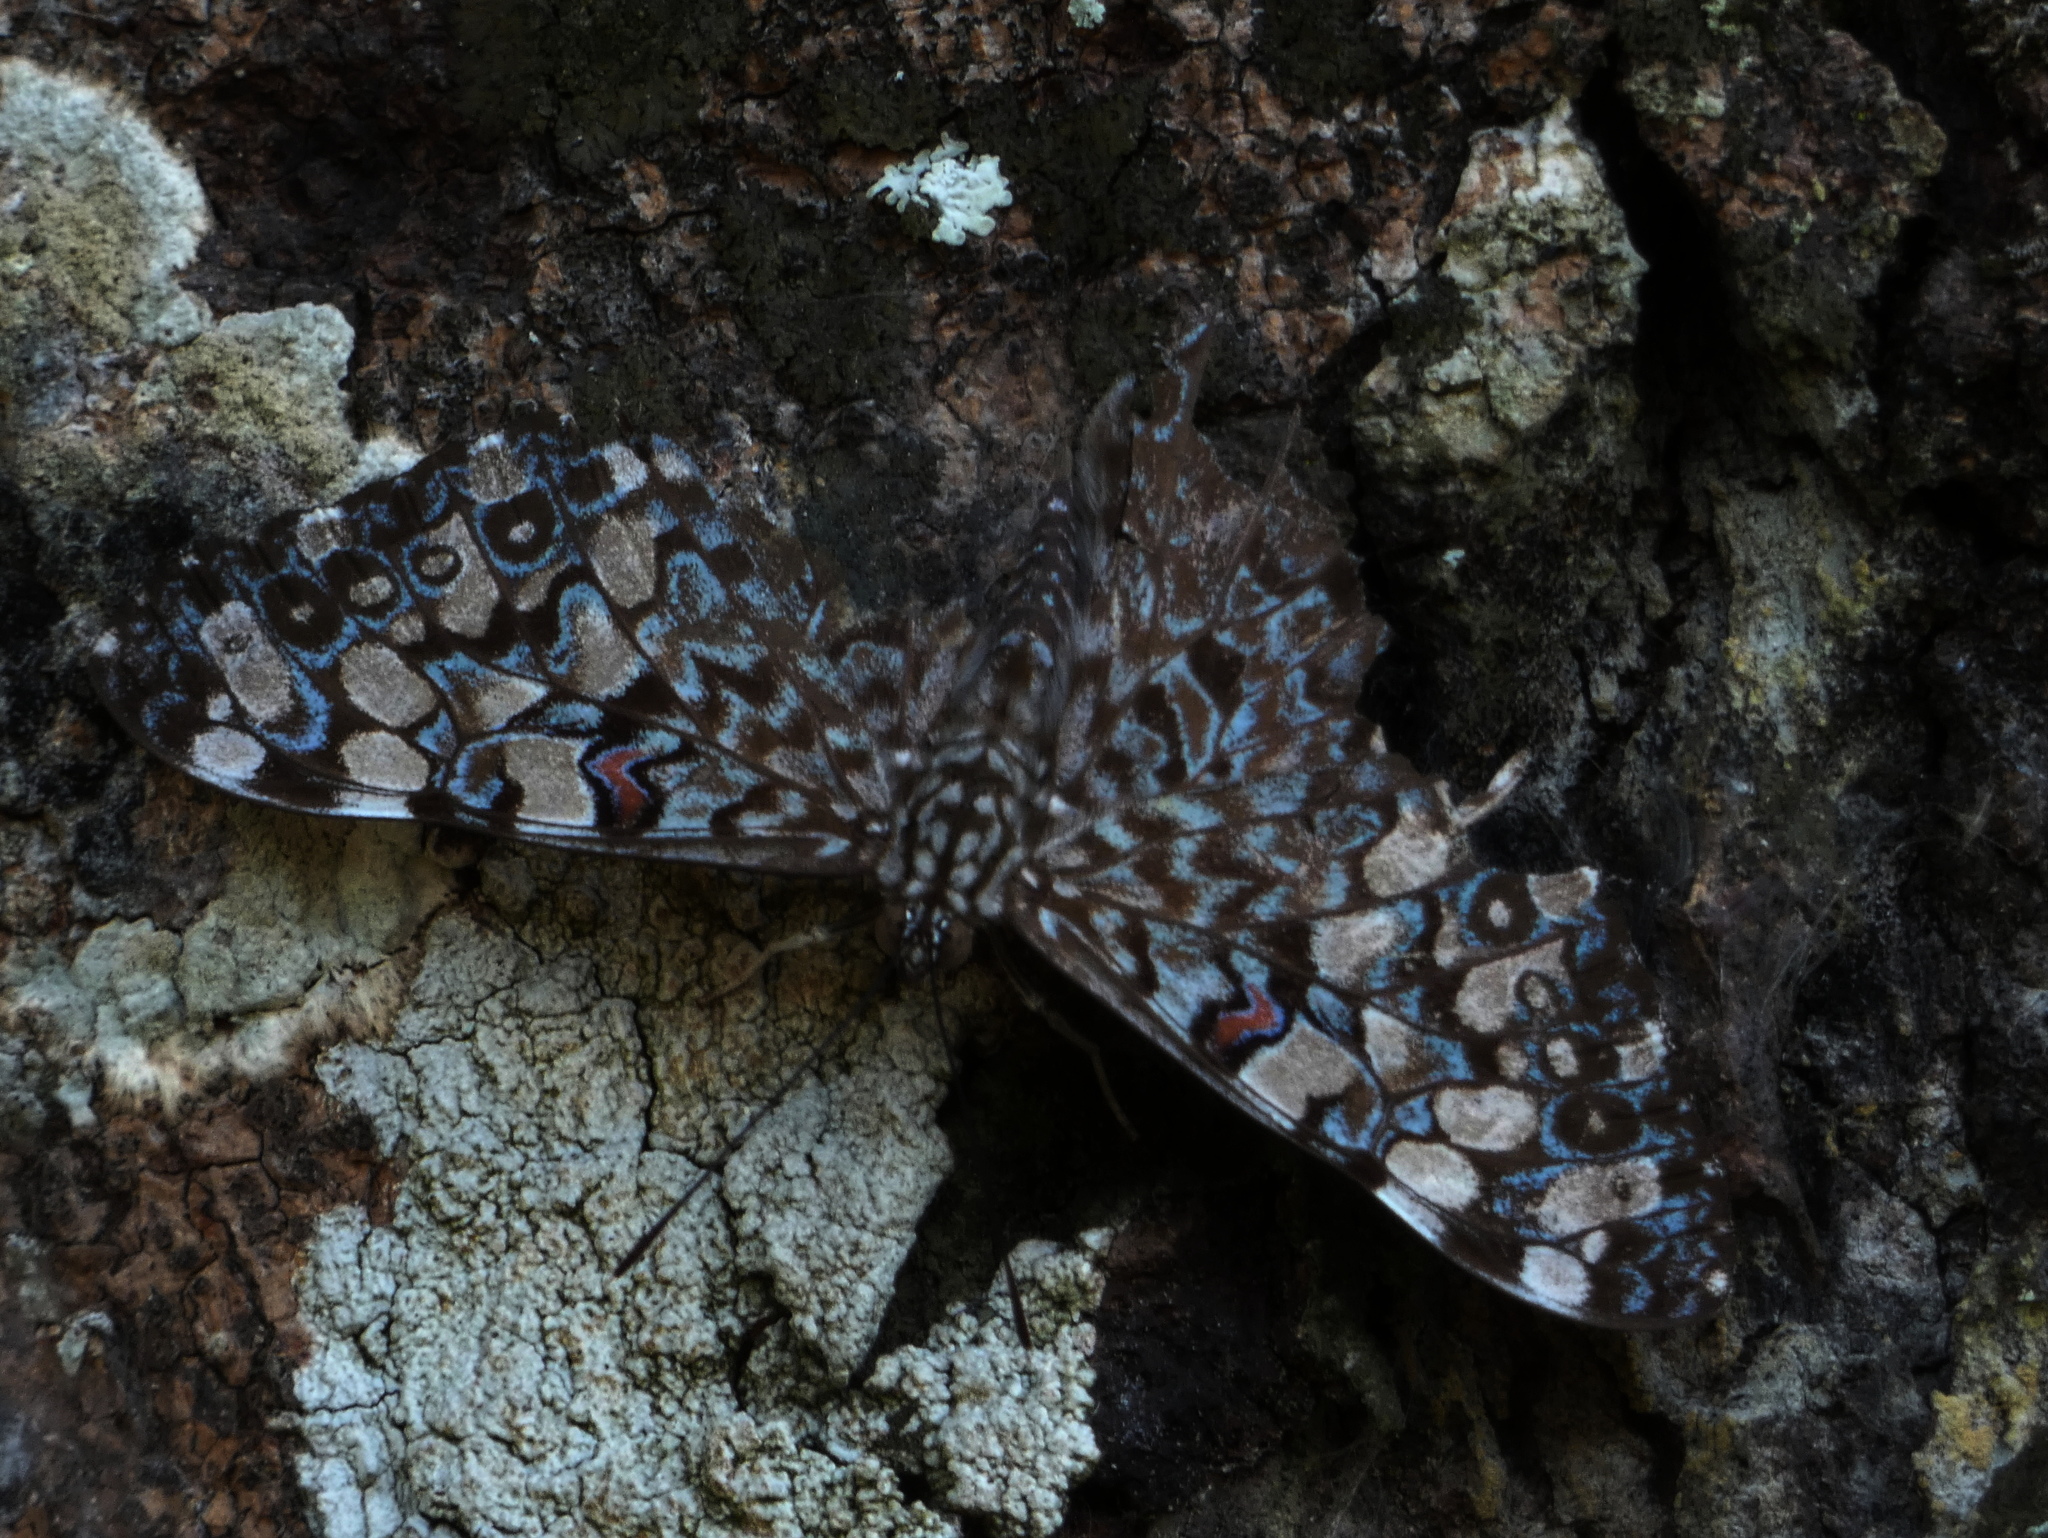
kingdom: Animalia
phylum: Arthropoda
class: Insecta
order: Lepidoptera
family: Nymphalidae
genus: Hamadryas
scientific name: Hamadryas feronia
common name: Variable cracker
